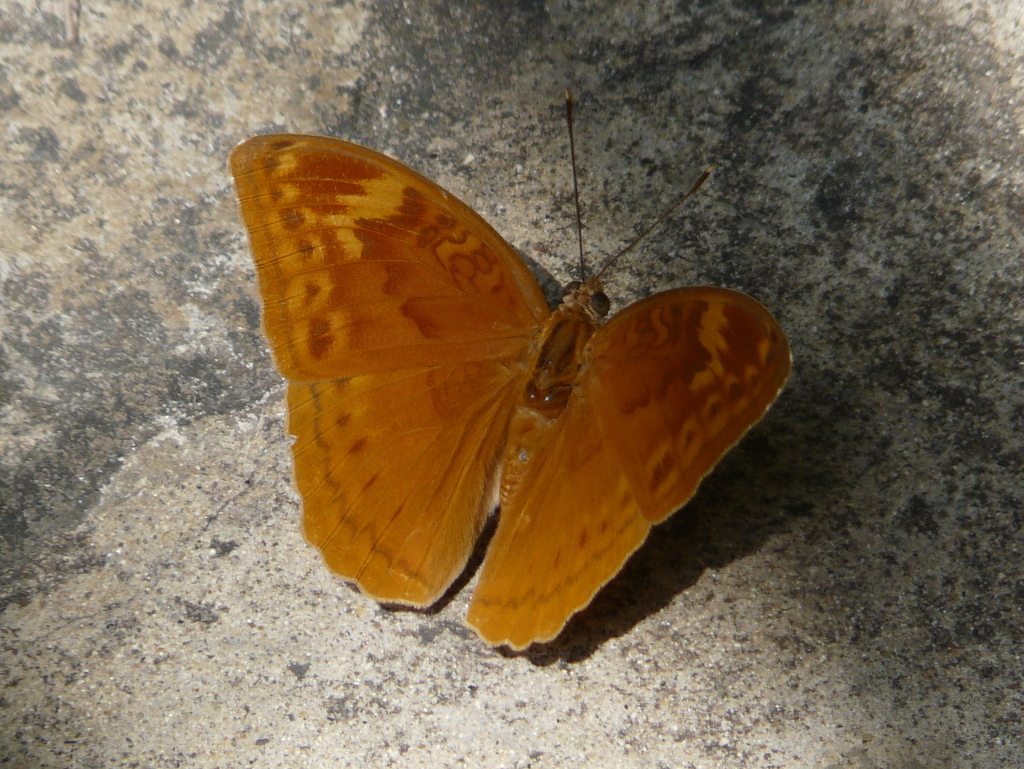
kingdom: Animalia
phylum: Arthropoda
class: Insecta
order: Lepidoptera
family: Nymphalidae
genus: Bebearia
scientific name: Bebearia orientis
